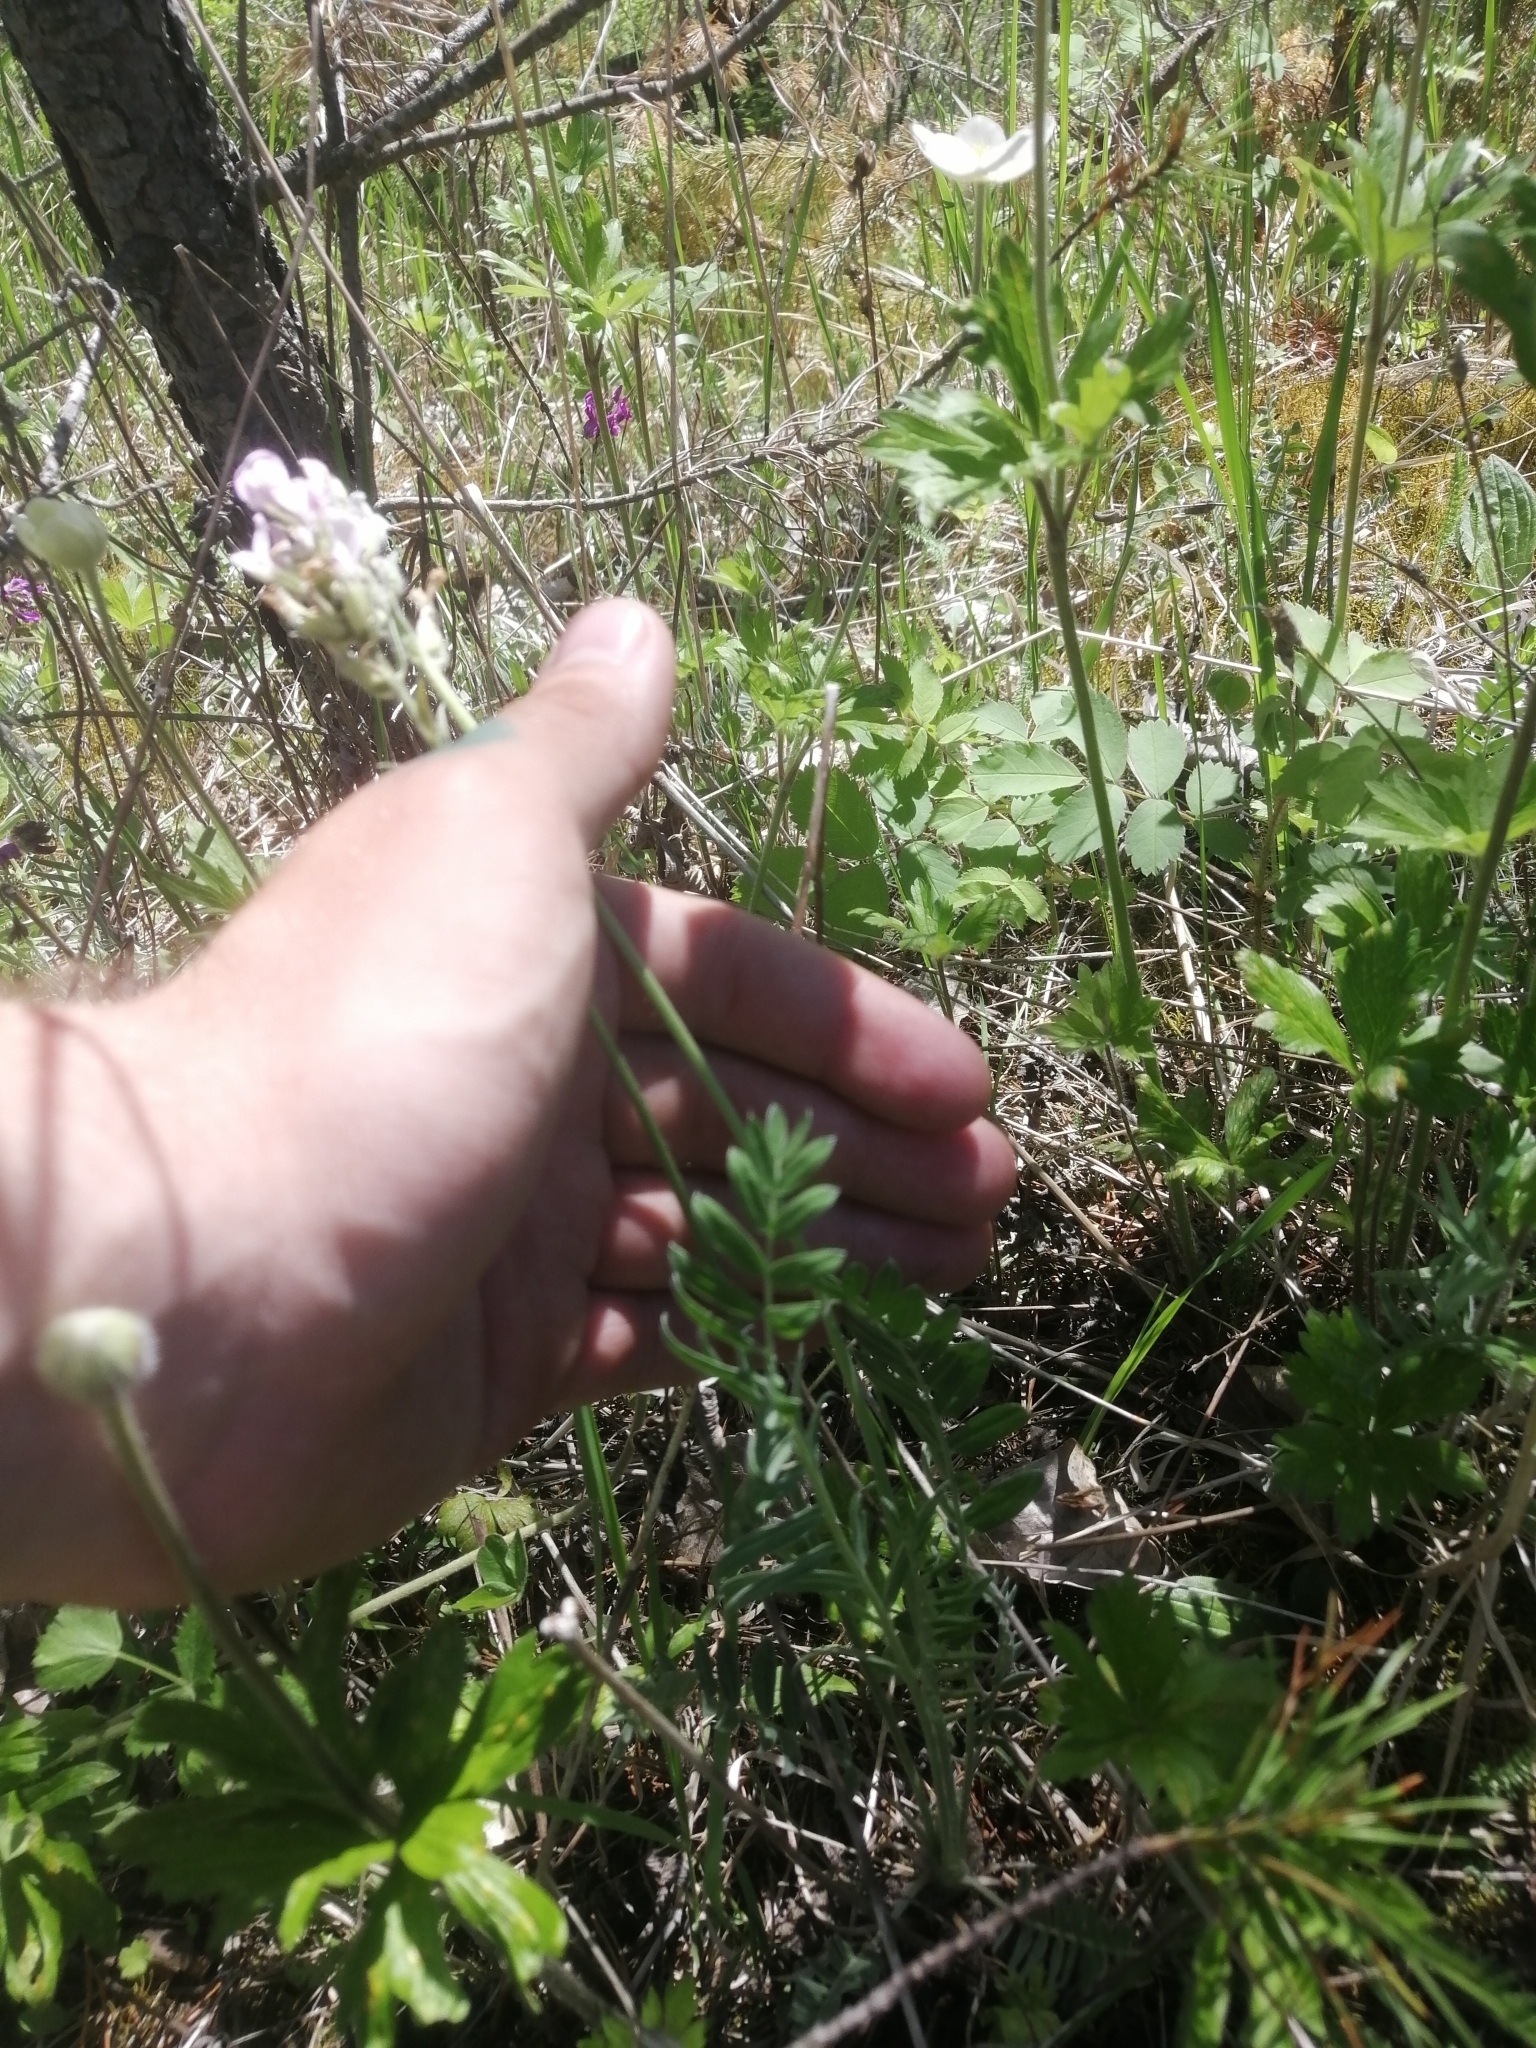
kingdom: Plantae
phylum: Tracheophyta
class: Magnoliopsida
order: Fabales
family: Fabaceae
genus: Oxytropis
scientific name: Oxytropis strobilacea
